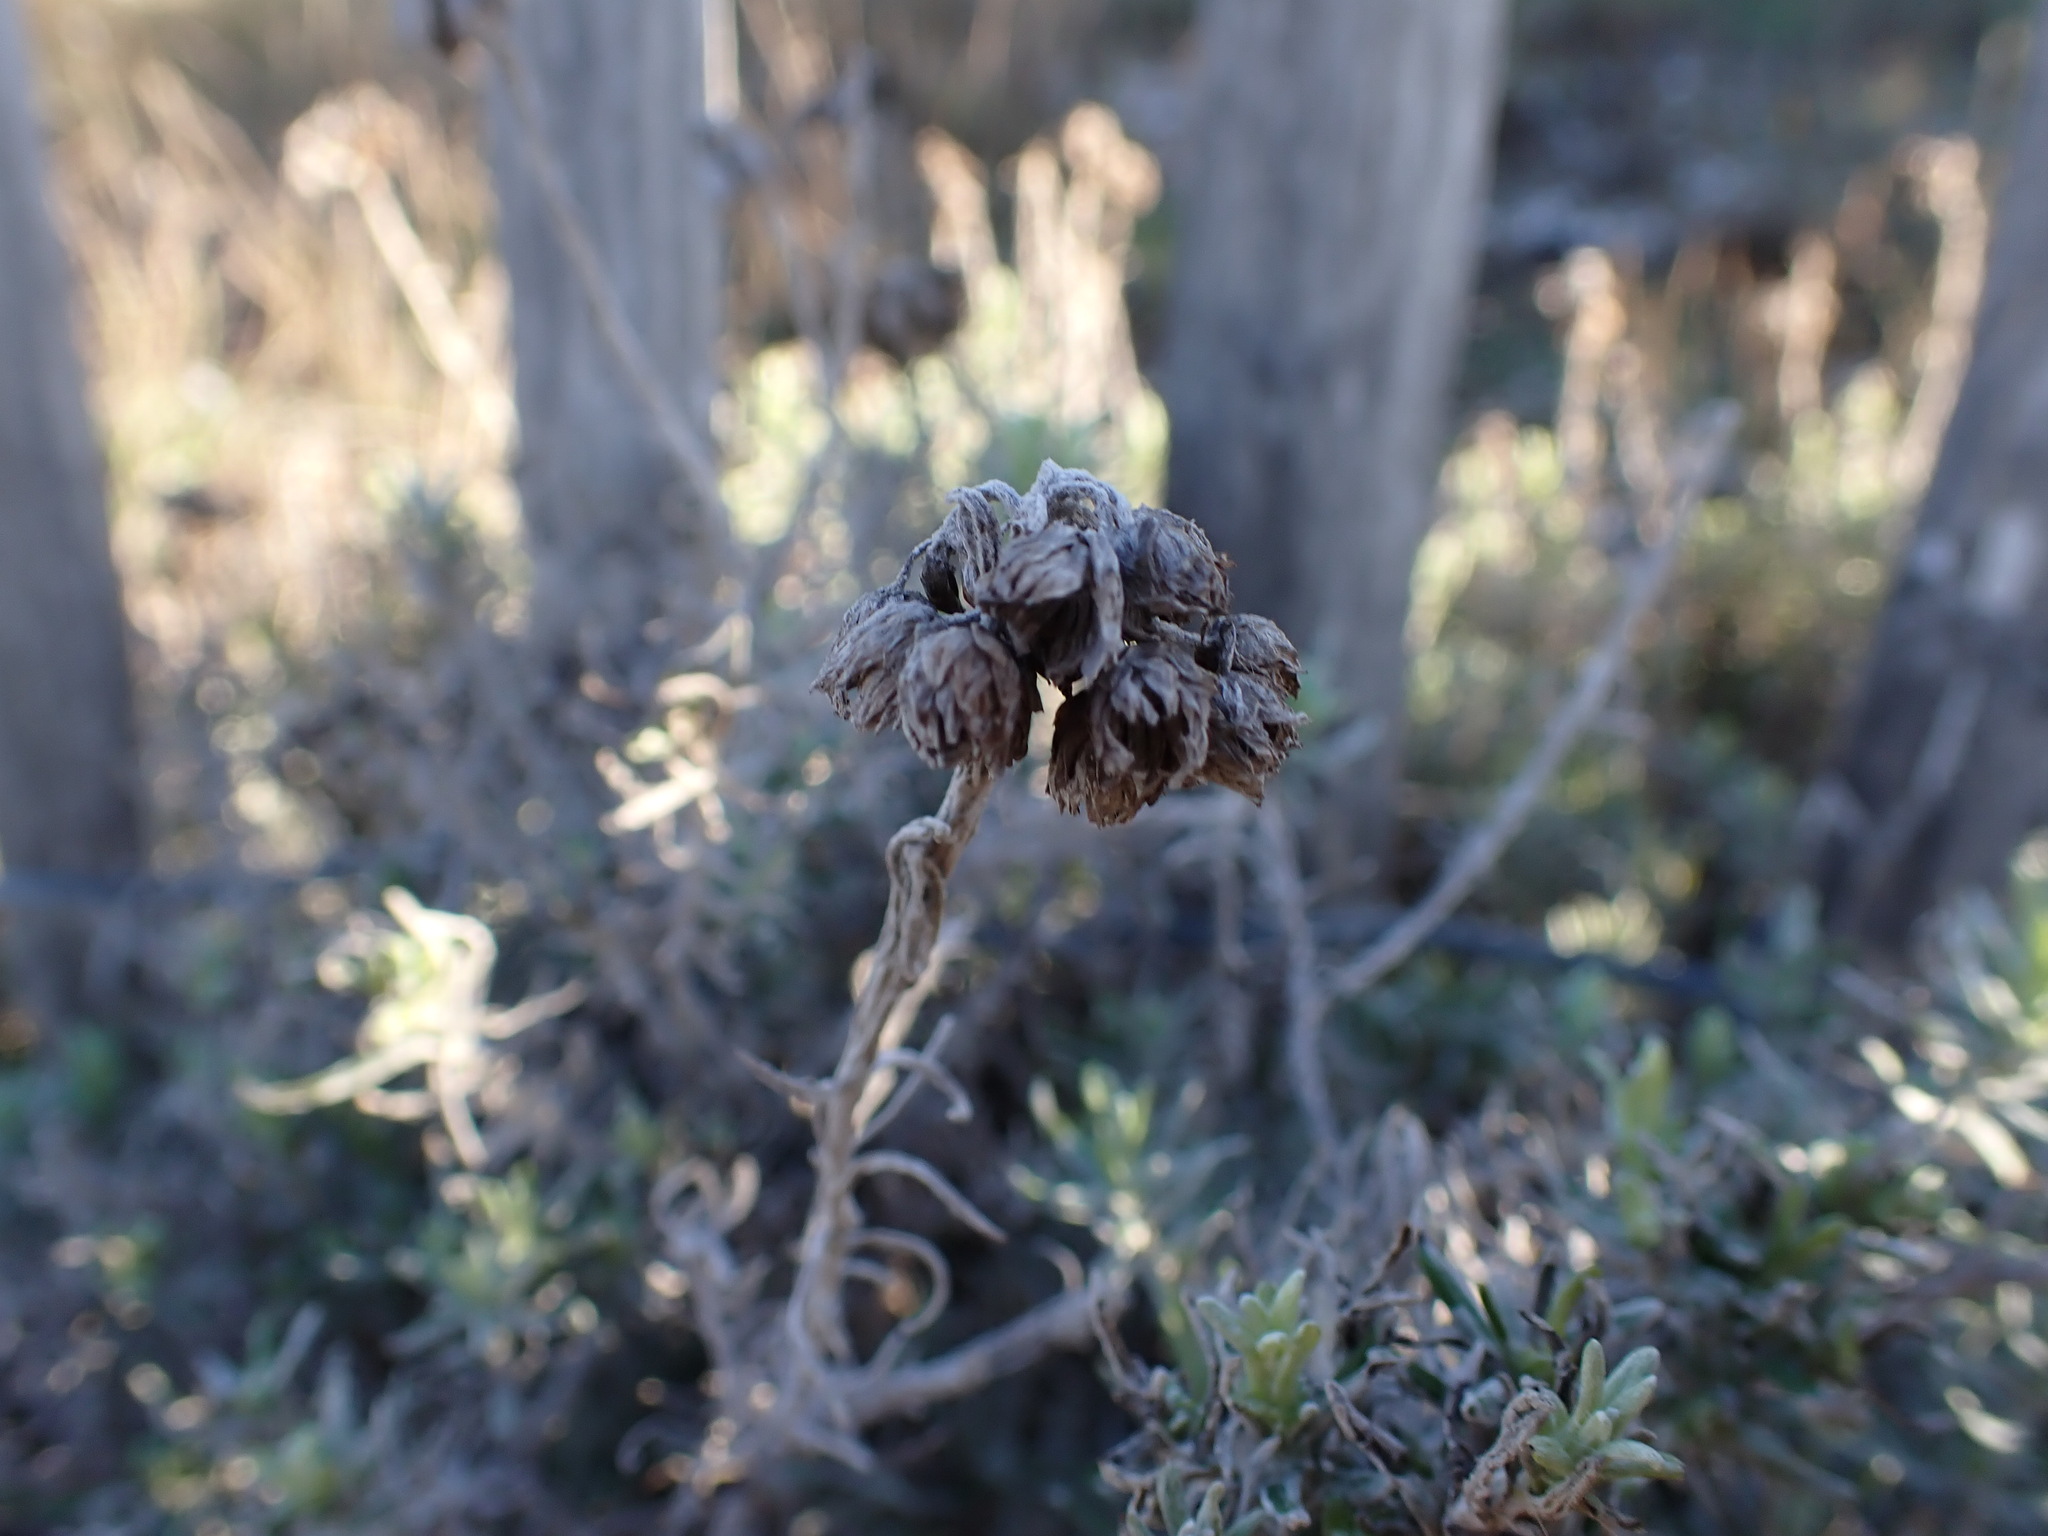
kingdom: Plantae
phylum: Tracheophyta
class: Magnoliopsida
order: Asterales
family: Asteraceae
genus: Helichrysum
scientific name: Helichrysum stoechas
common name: Goldilocks
